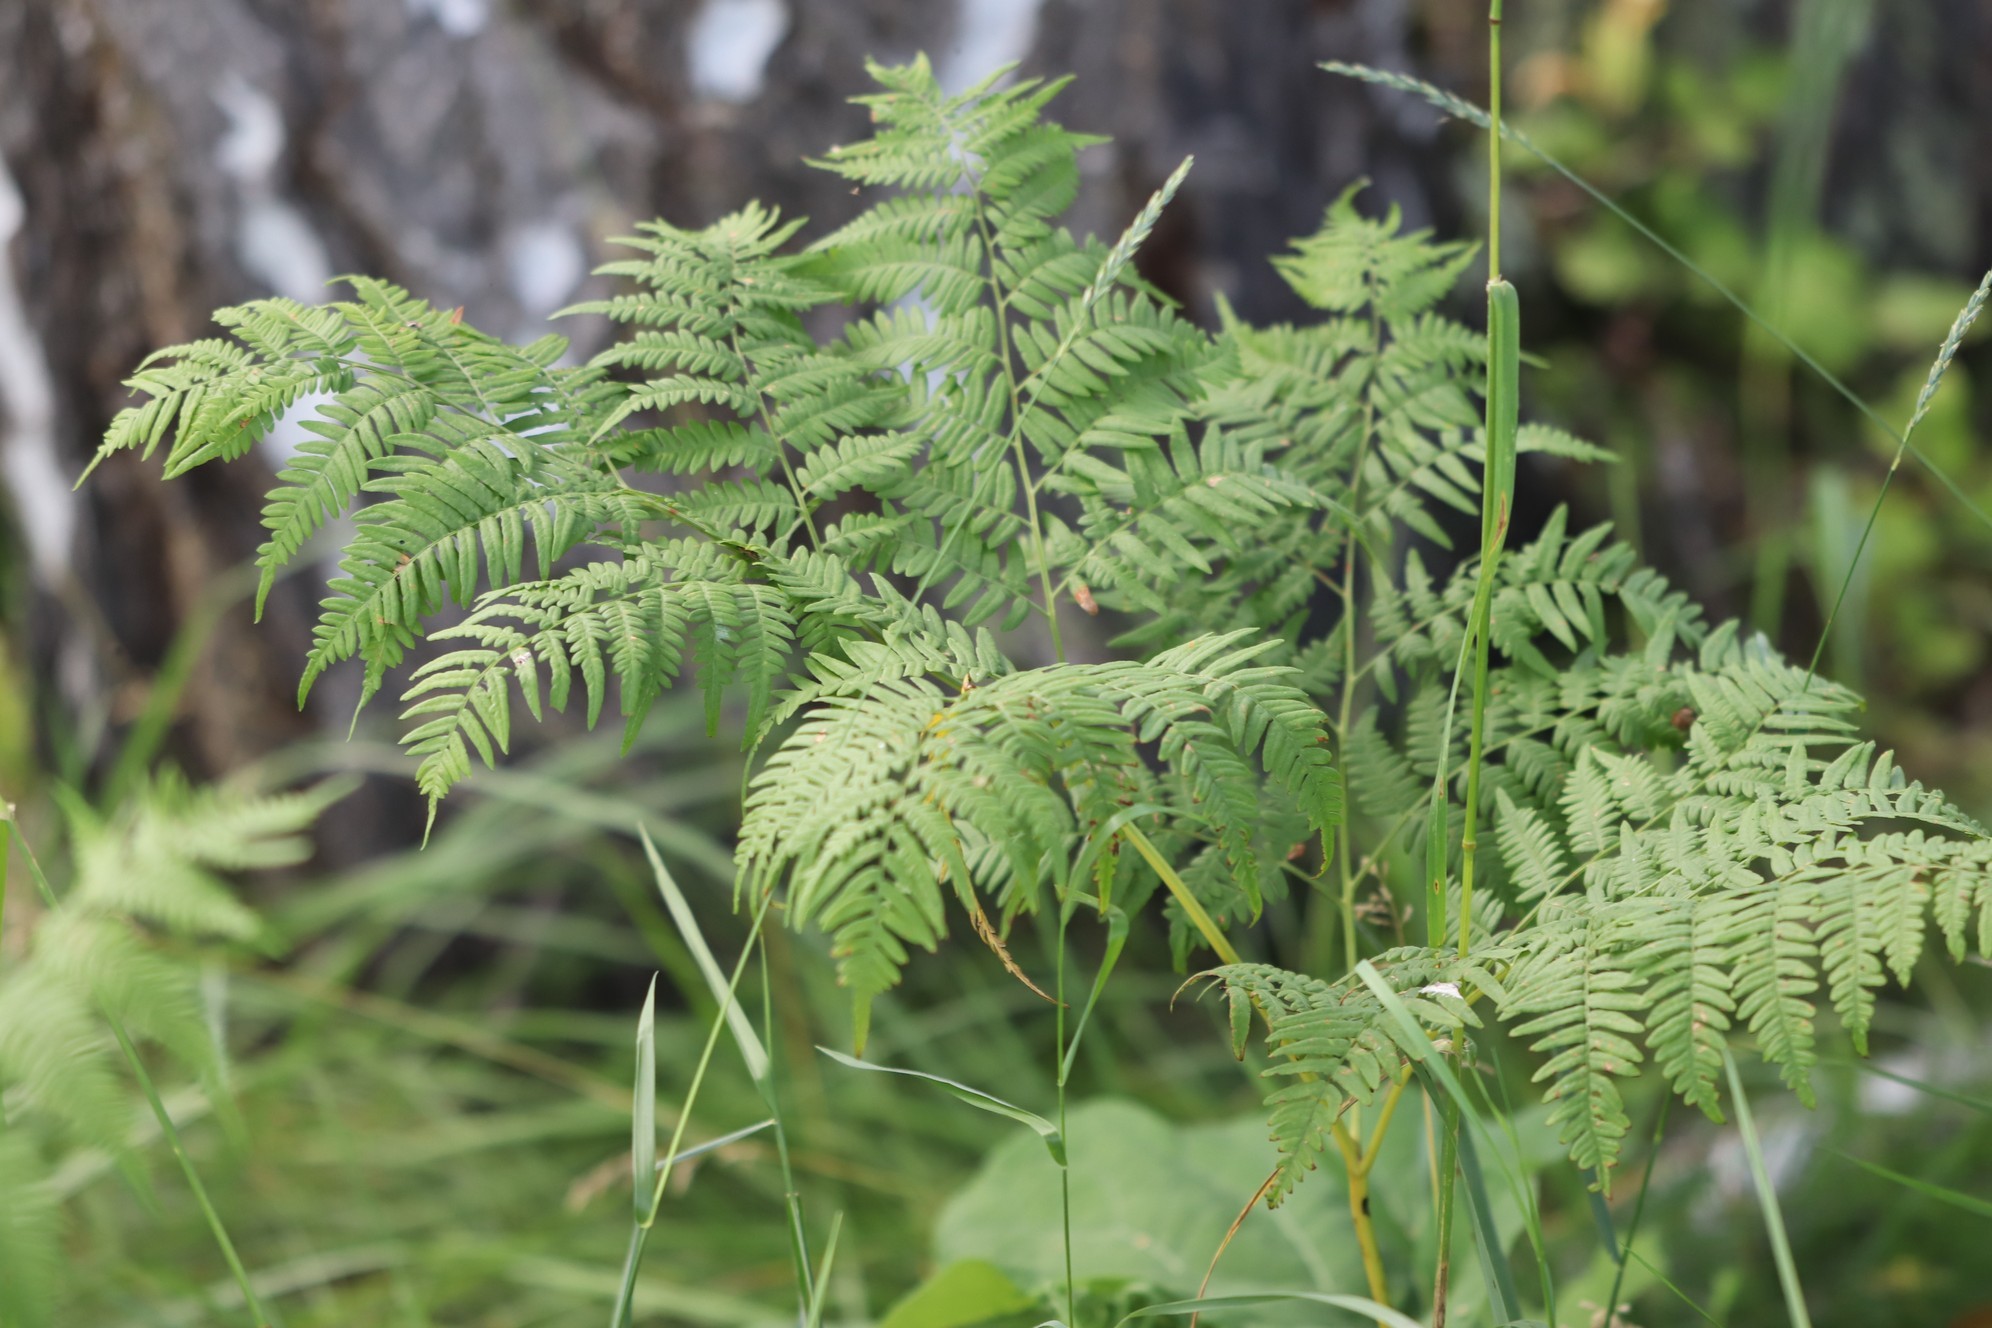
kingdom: Plantae
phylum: Tracheophyta
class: Polypodiopsida
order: Polypodiales
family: Dennstaedtiaceae
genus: Pteridium
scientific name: Pteridium aquilinum
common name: Bracken
